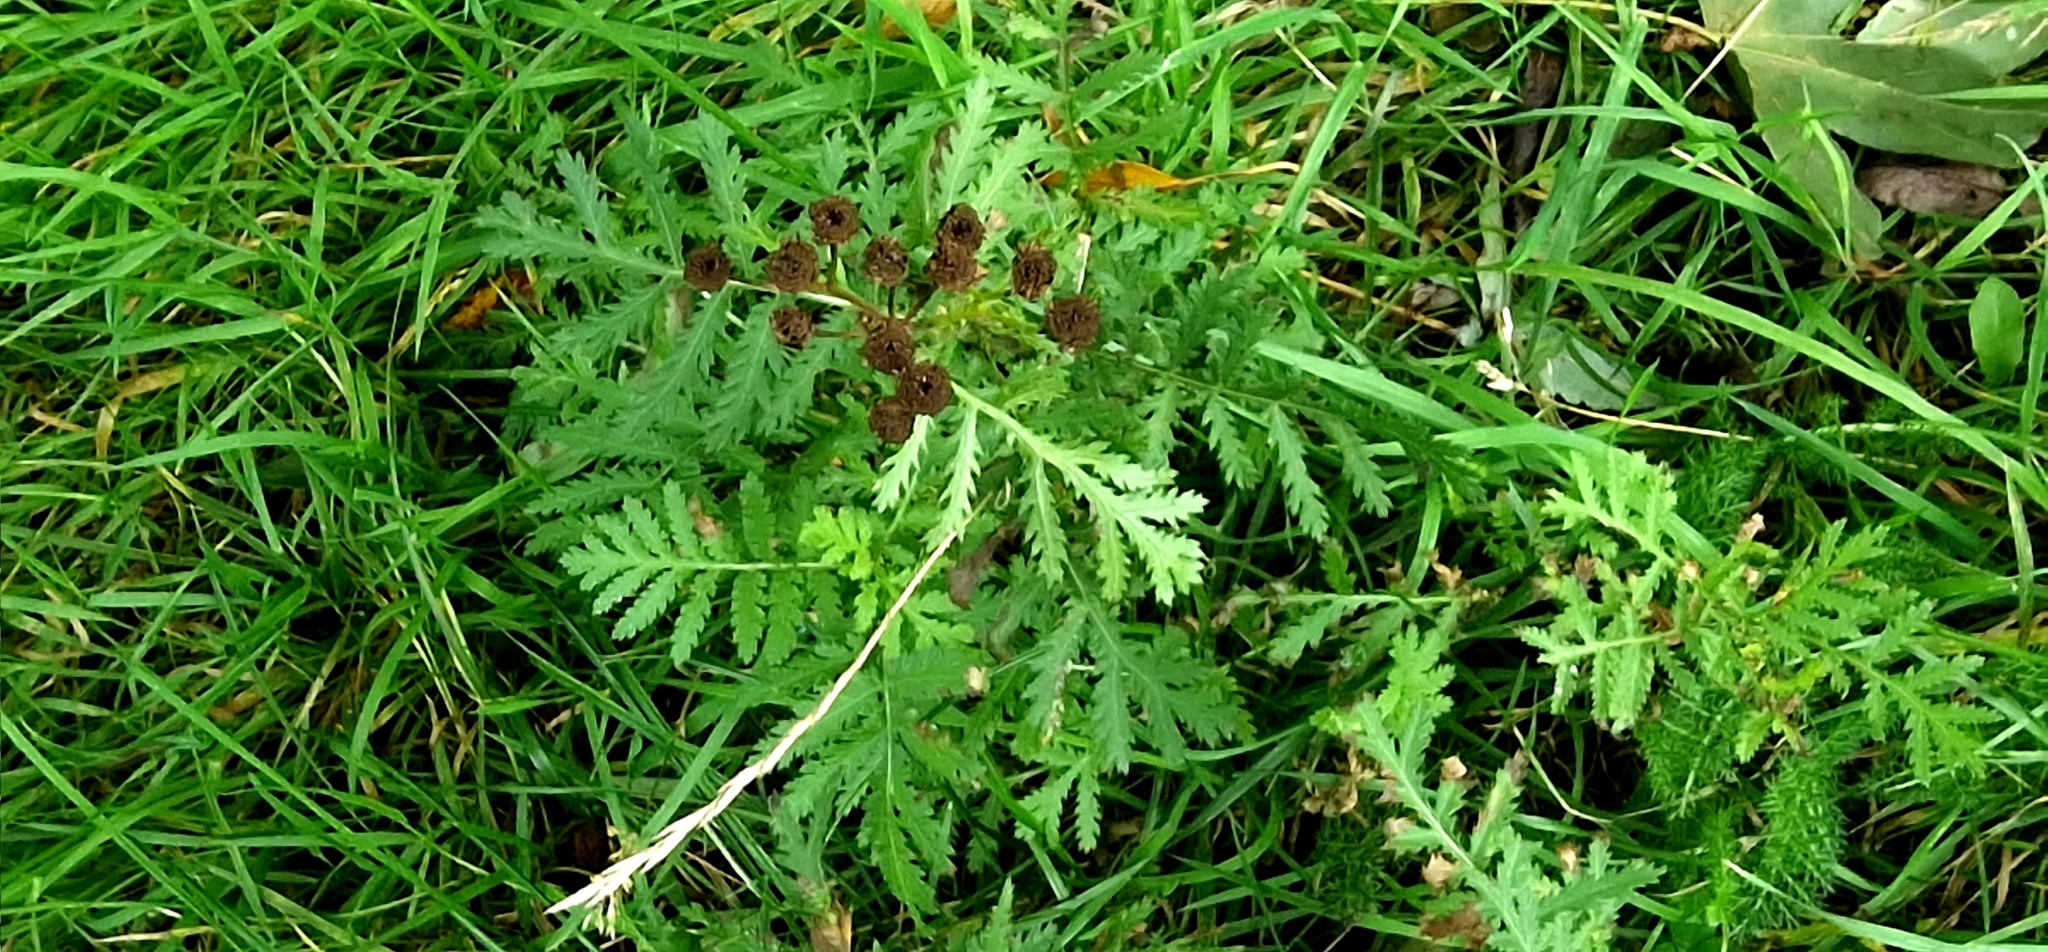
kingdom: Plantae
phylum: Tracheophyta
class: Magnoliopsida
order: Asterales
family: Asteraceae
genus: Tanacetum
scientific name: Tanacetum vulgare
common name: Common tansy
